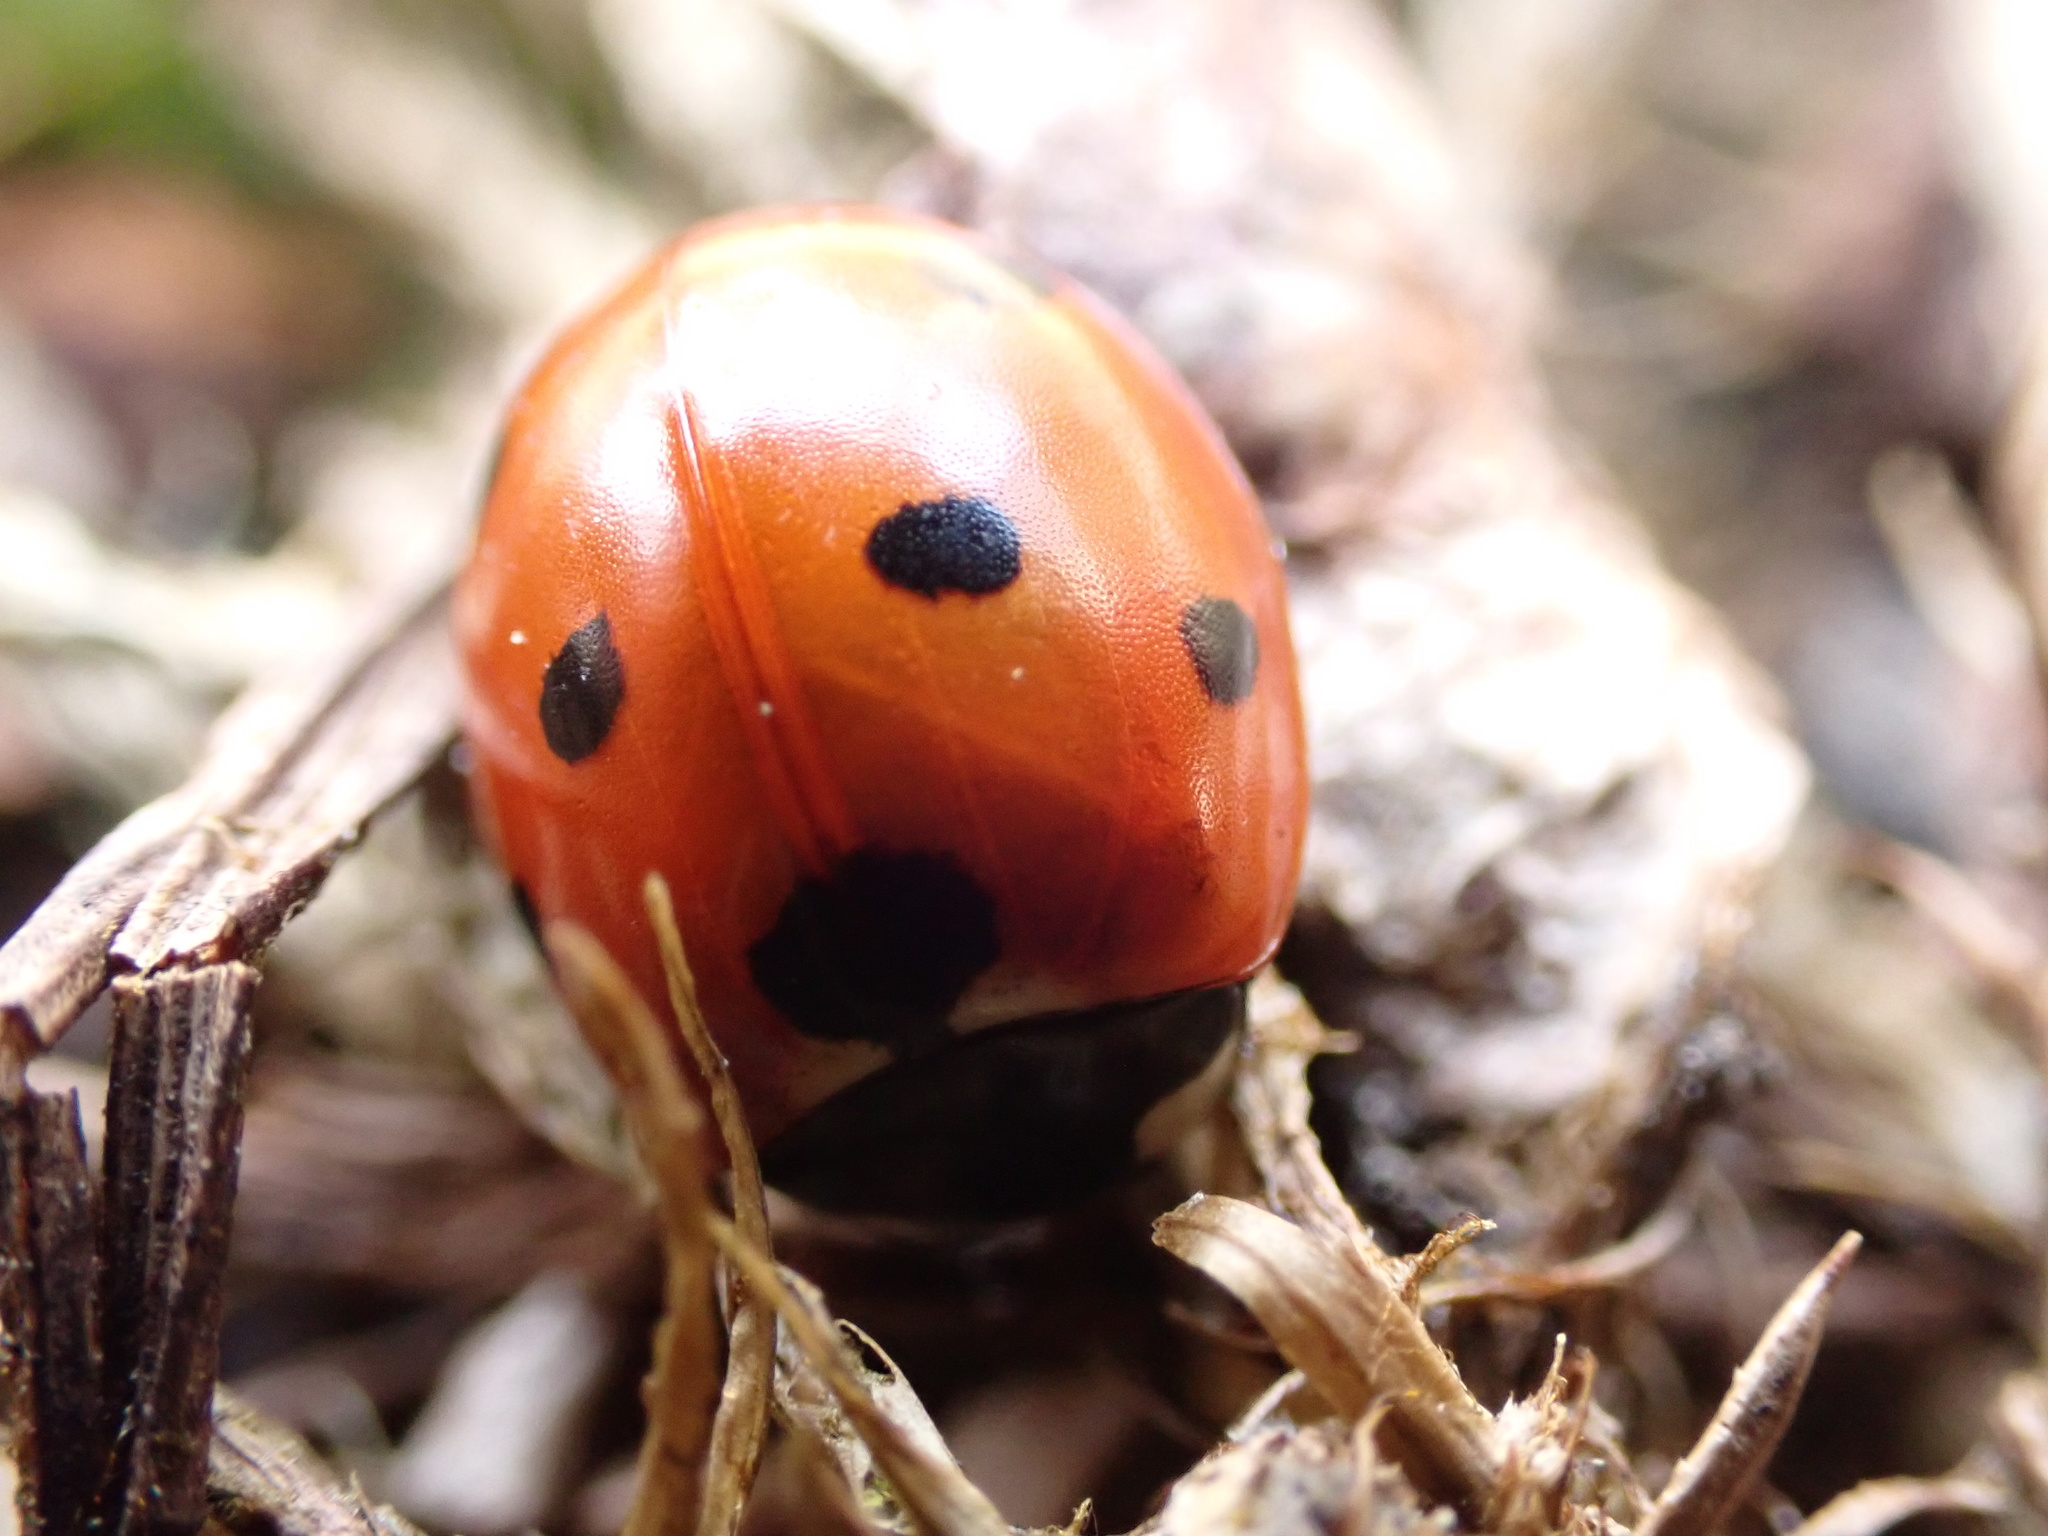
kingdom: Animalia
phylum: Arthropoda
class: Insecta
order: Coleoptera
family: Coccinellidae
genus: Coccinella
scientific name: Coccinella septempunctata
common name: Sevenspotted lady beetle
